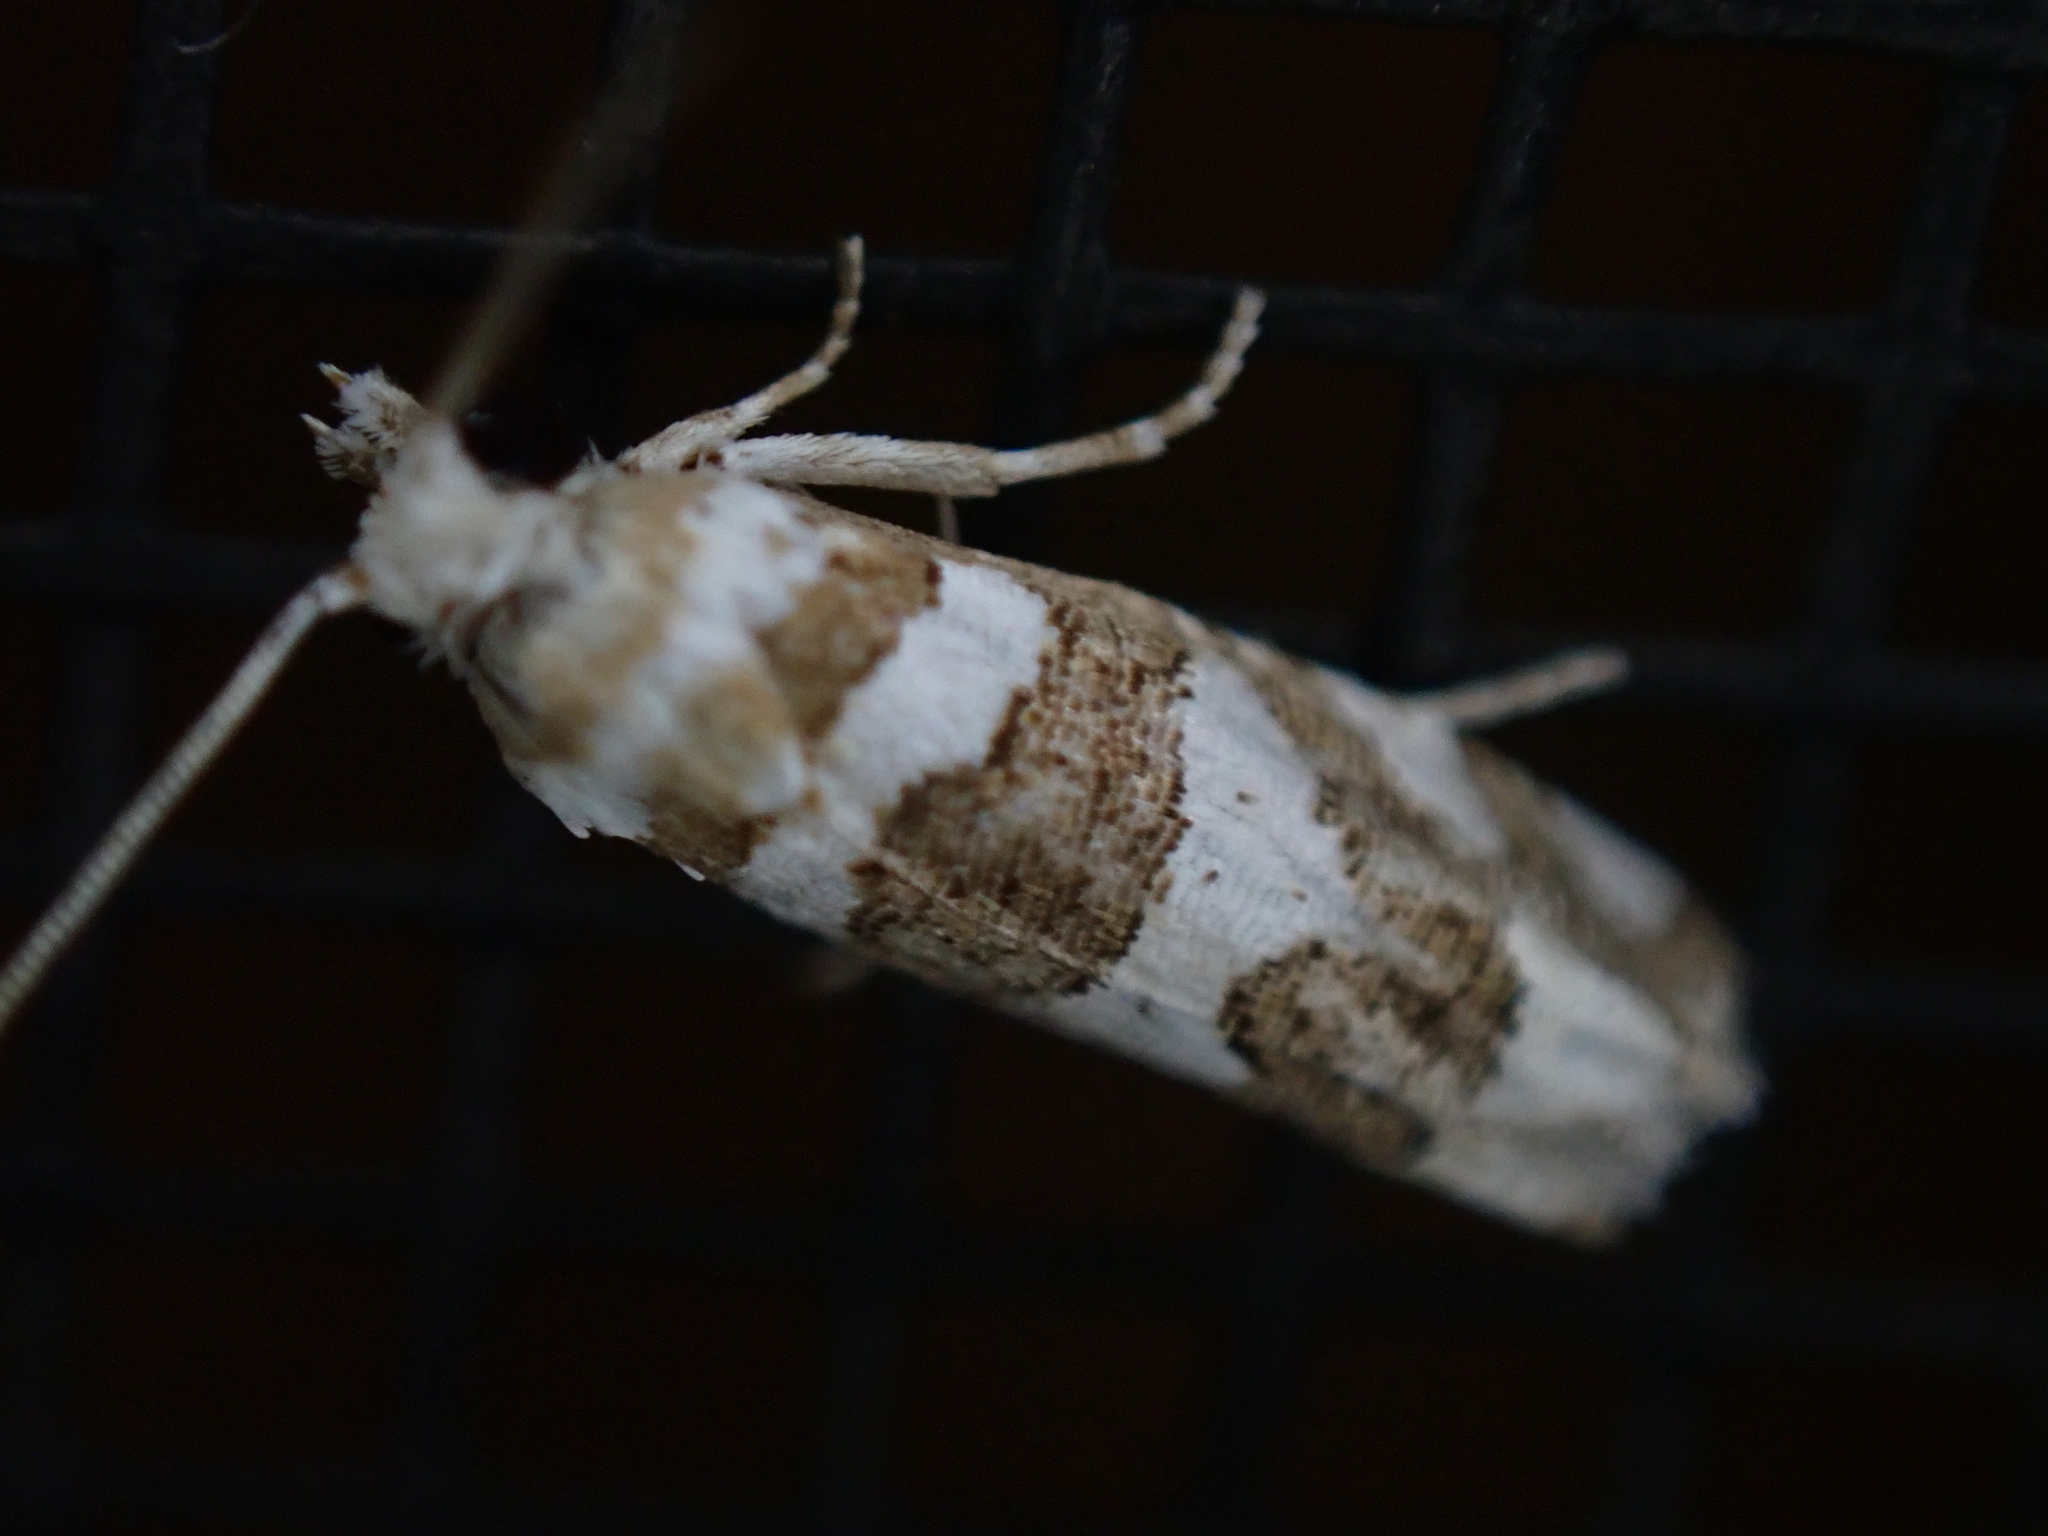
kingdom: Animalia
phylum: Arthropoda
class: Insecta
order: Lepidoptera
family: Tortricidae
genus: Pelochrista
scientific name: Pelochrista robinsonana
